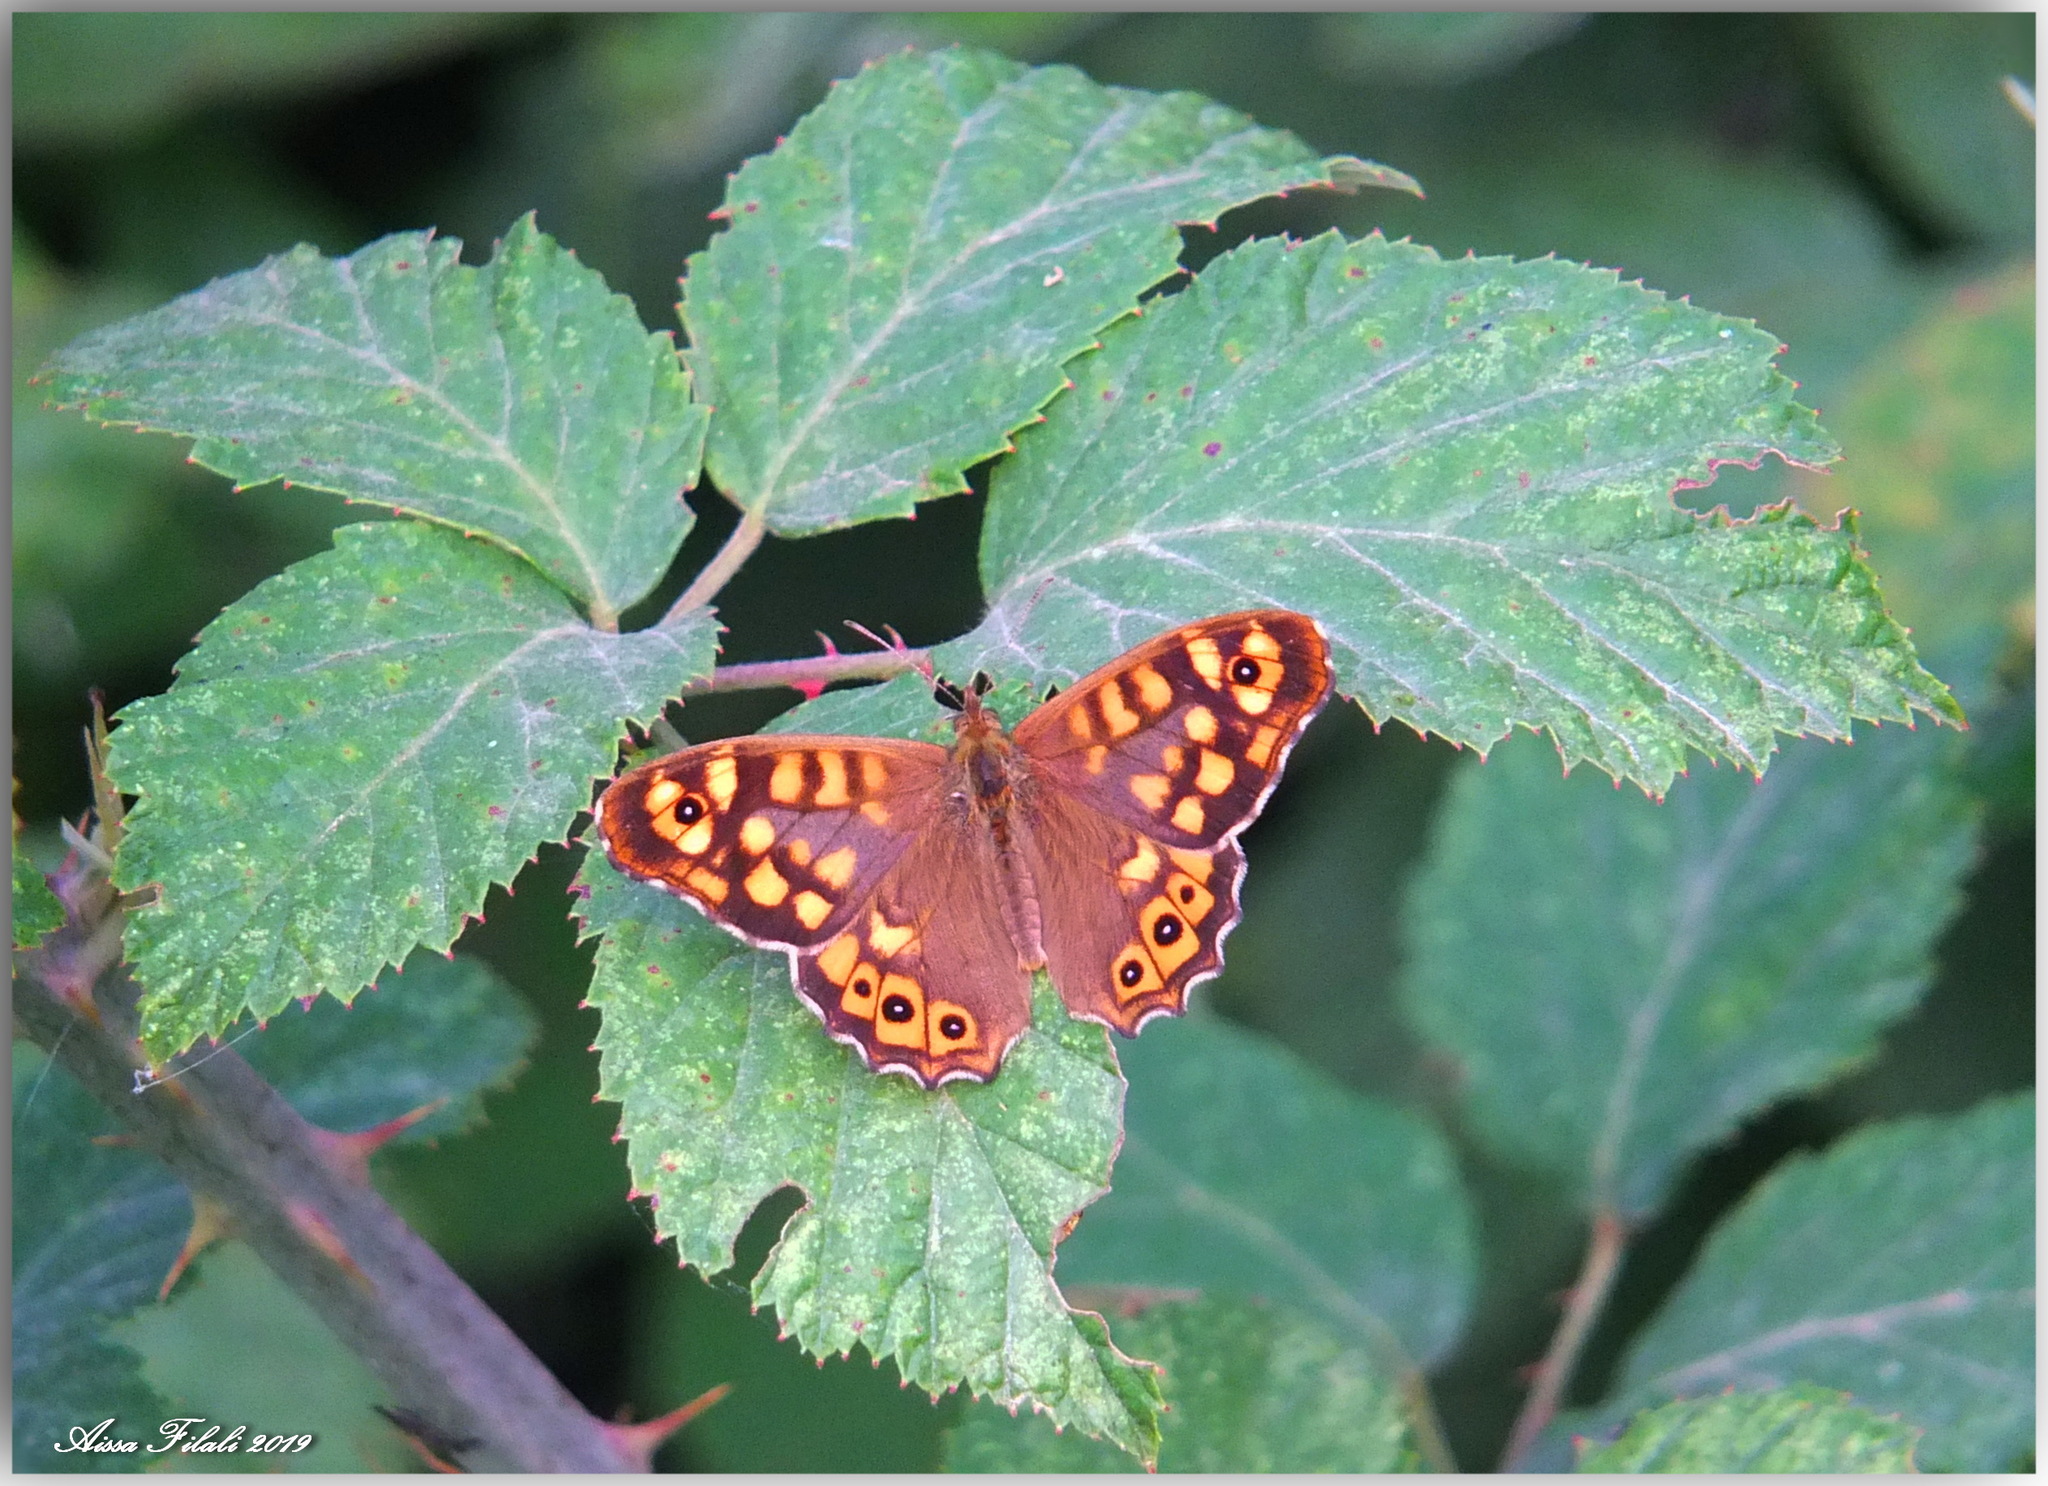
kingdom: Animalia
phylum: Arthropoda
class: Insecta
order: Lepidoptera
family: Nymphalidae
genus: Pararge
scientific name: Pararge aegeria
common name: Speckled wood
